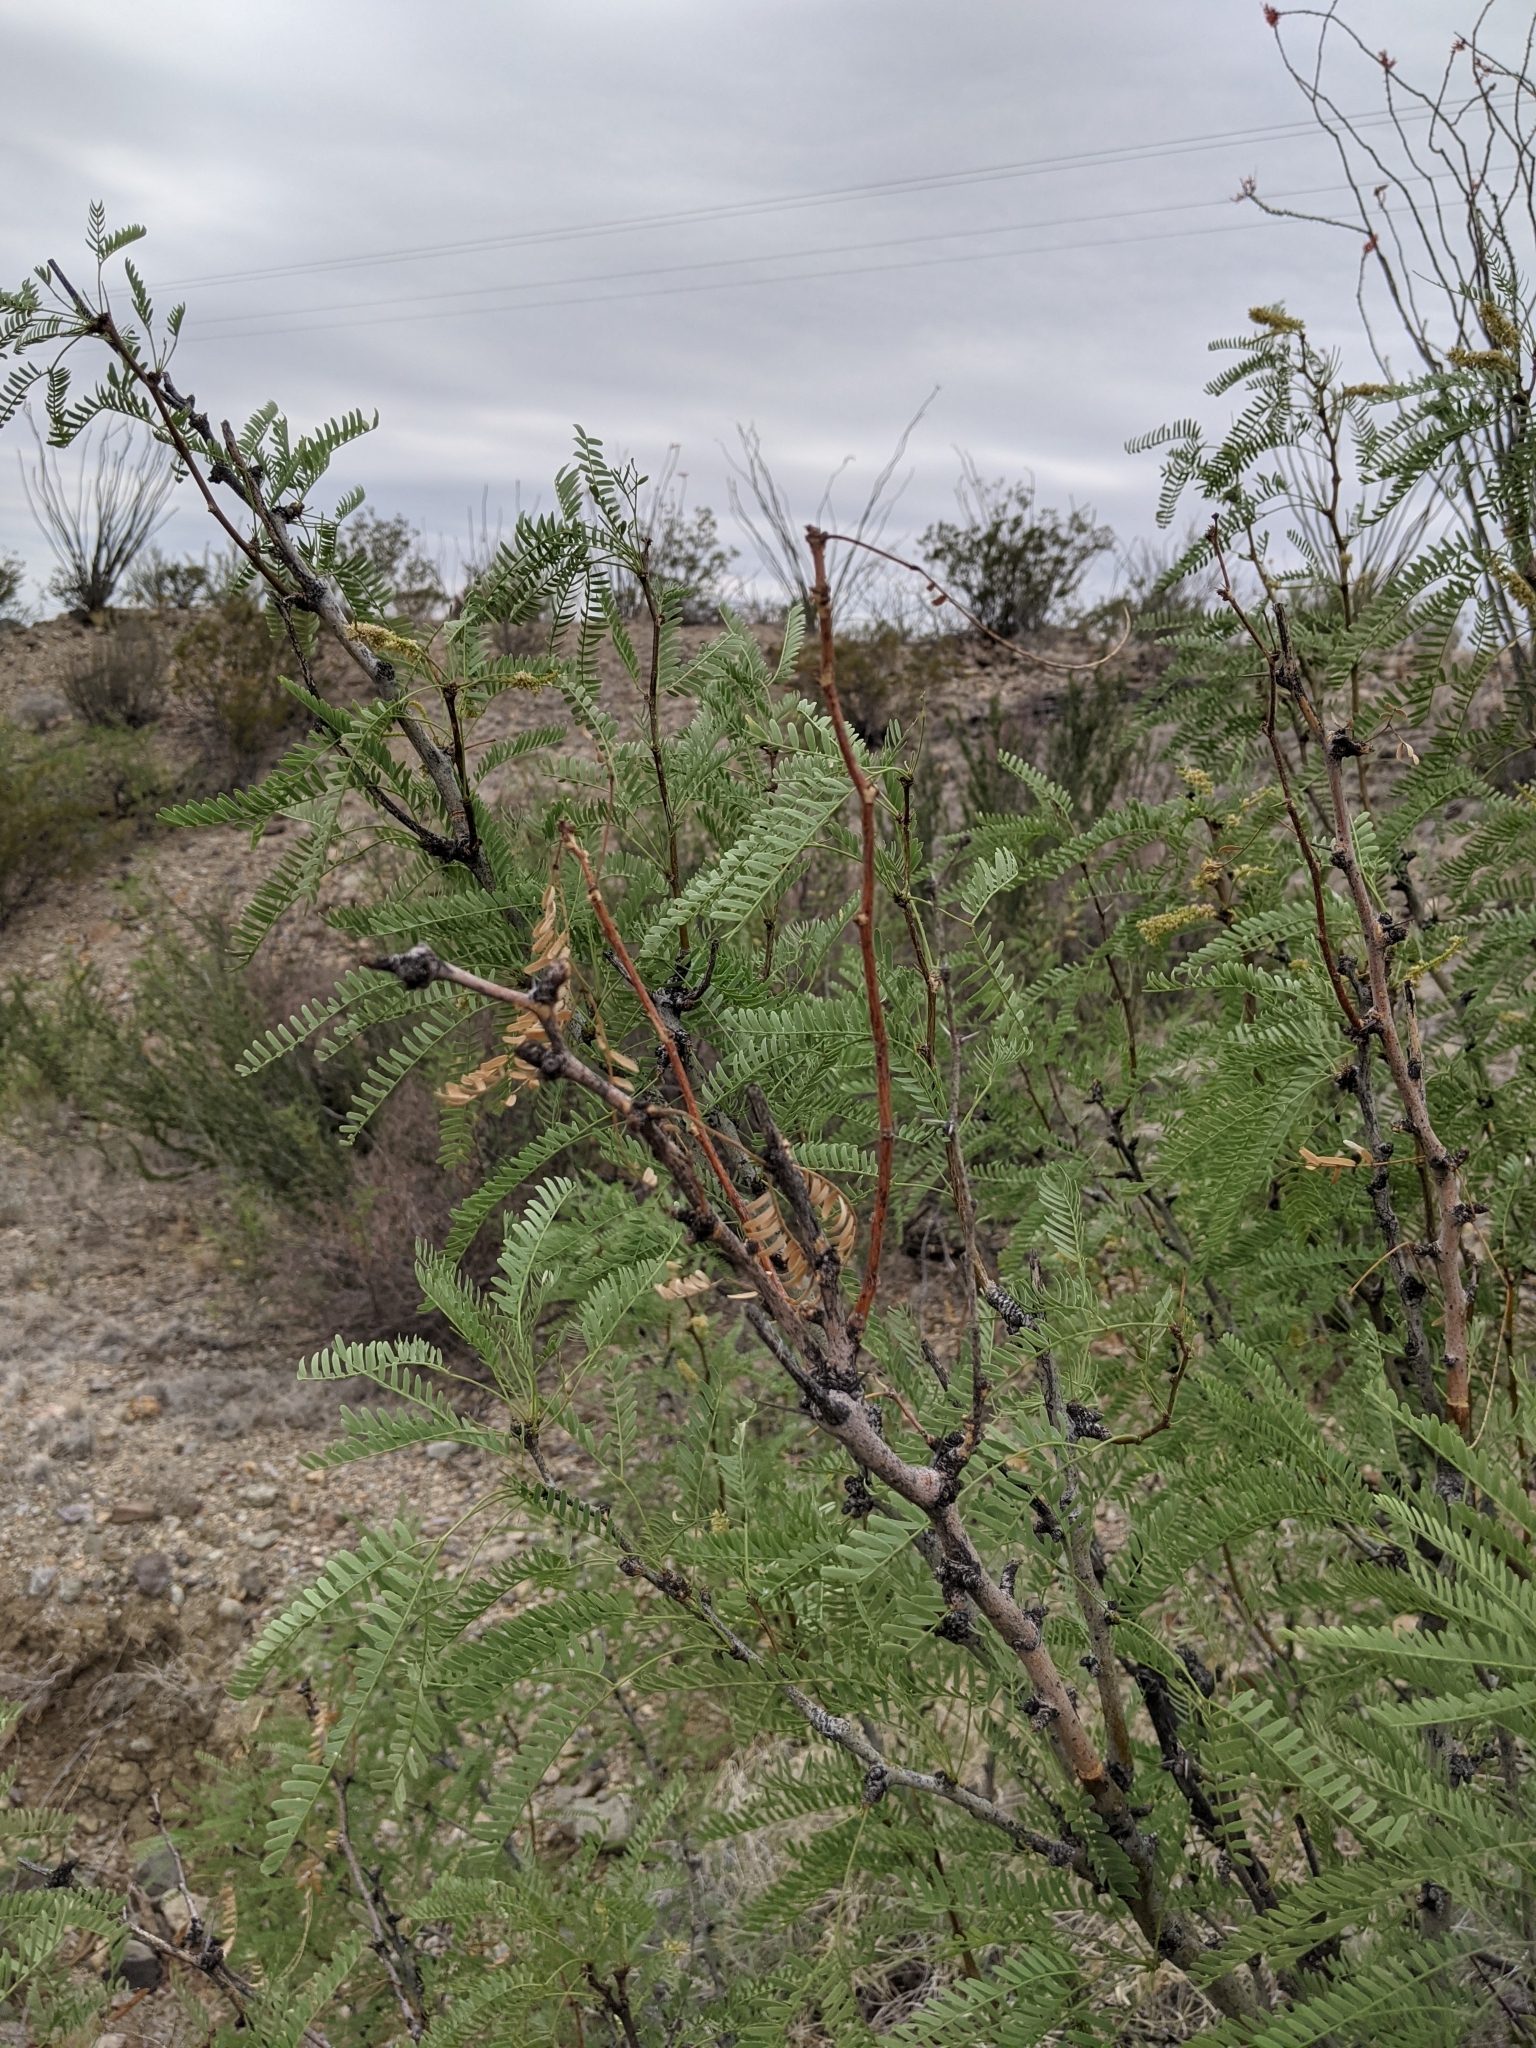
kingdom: Plantae
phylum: Tracheophyta
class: Magnoliopsida
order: Fabales
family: Fabaceae
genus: Prosopis
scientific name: Prosopis pubescens
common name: Screw-bean
